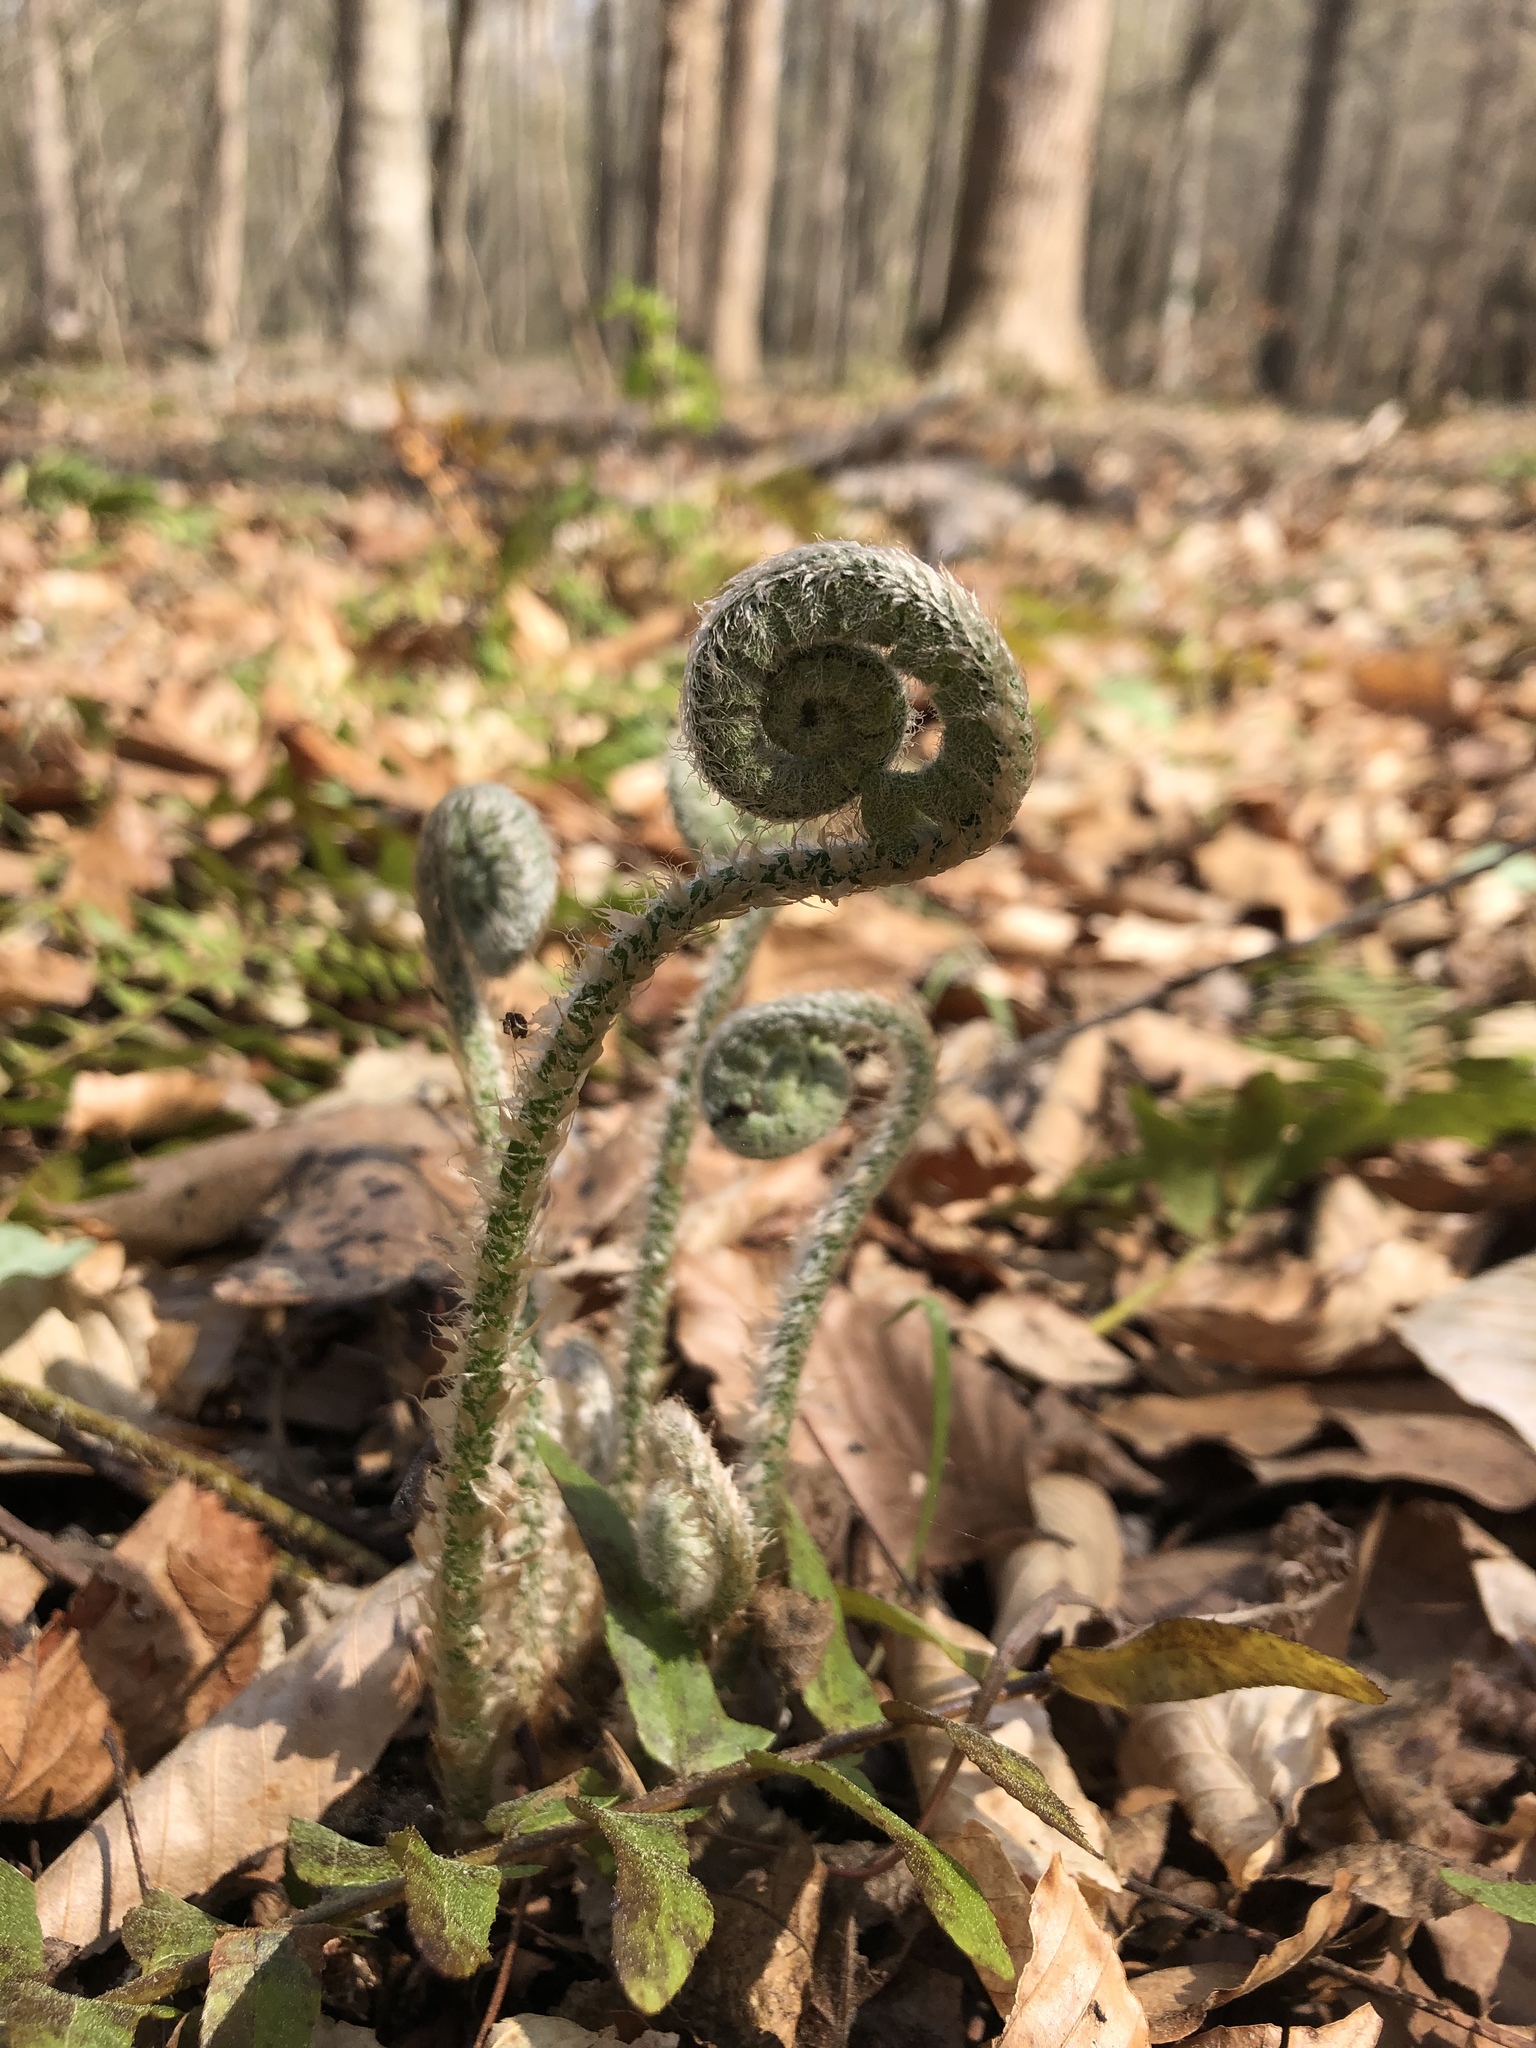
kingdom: Plantae
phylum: Tracheophyta
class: Polypodiopsida
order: Polypodiales
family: Dryopteridaceae
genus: Polystichum
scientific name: Polystichum acrostichoides
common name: Christmas fern
